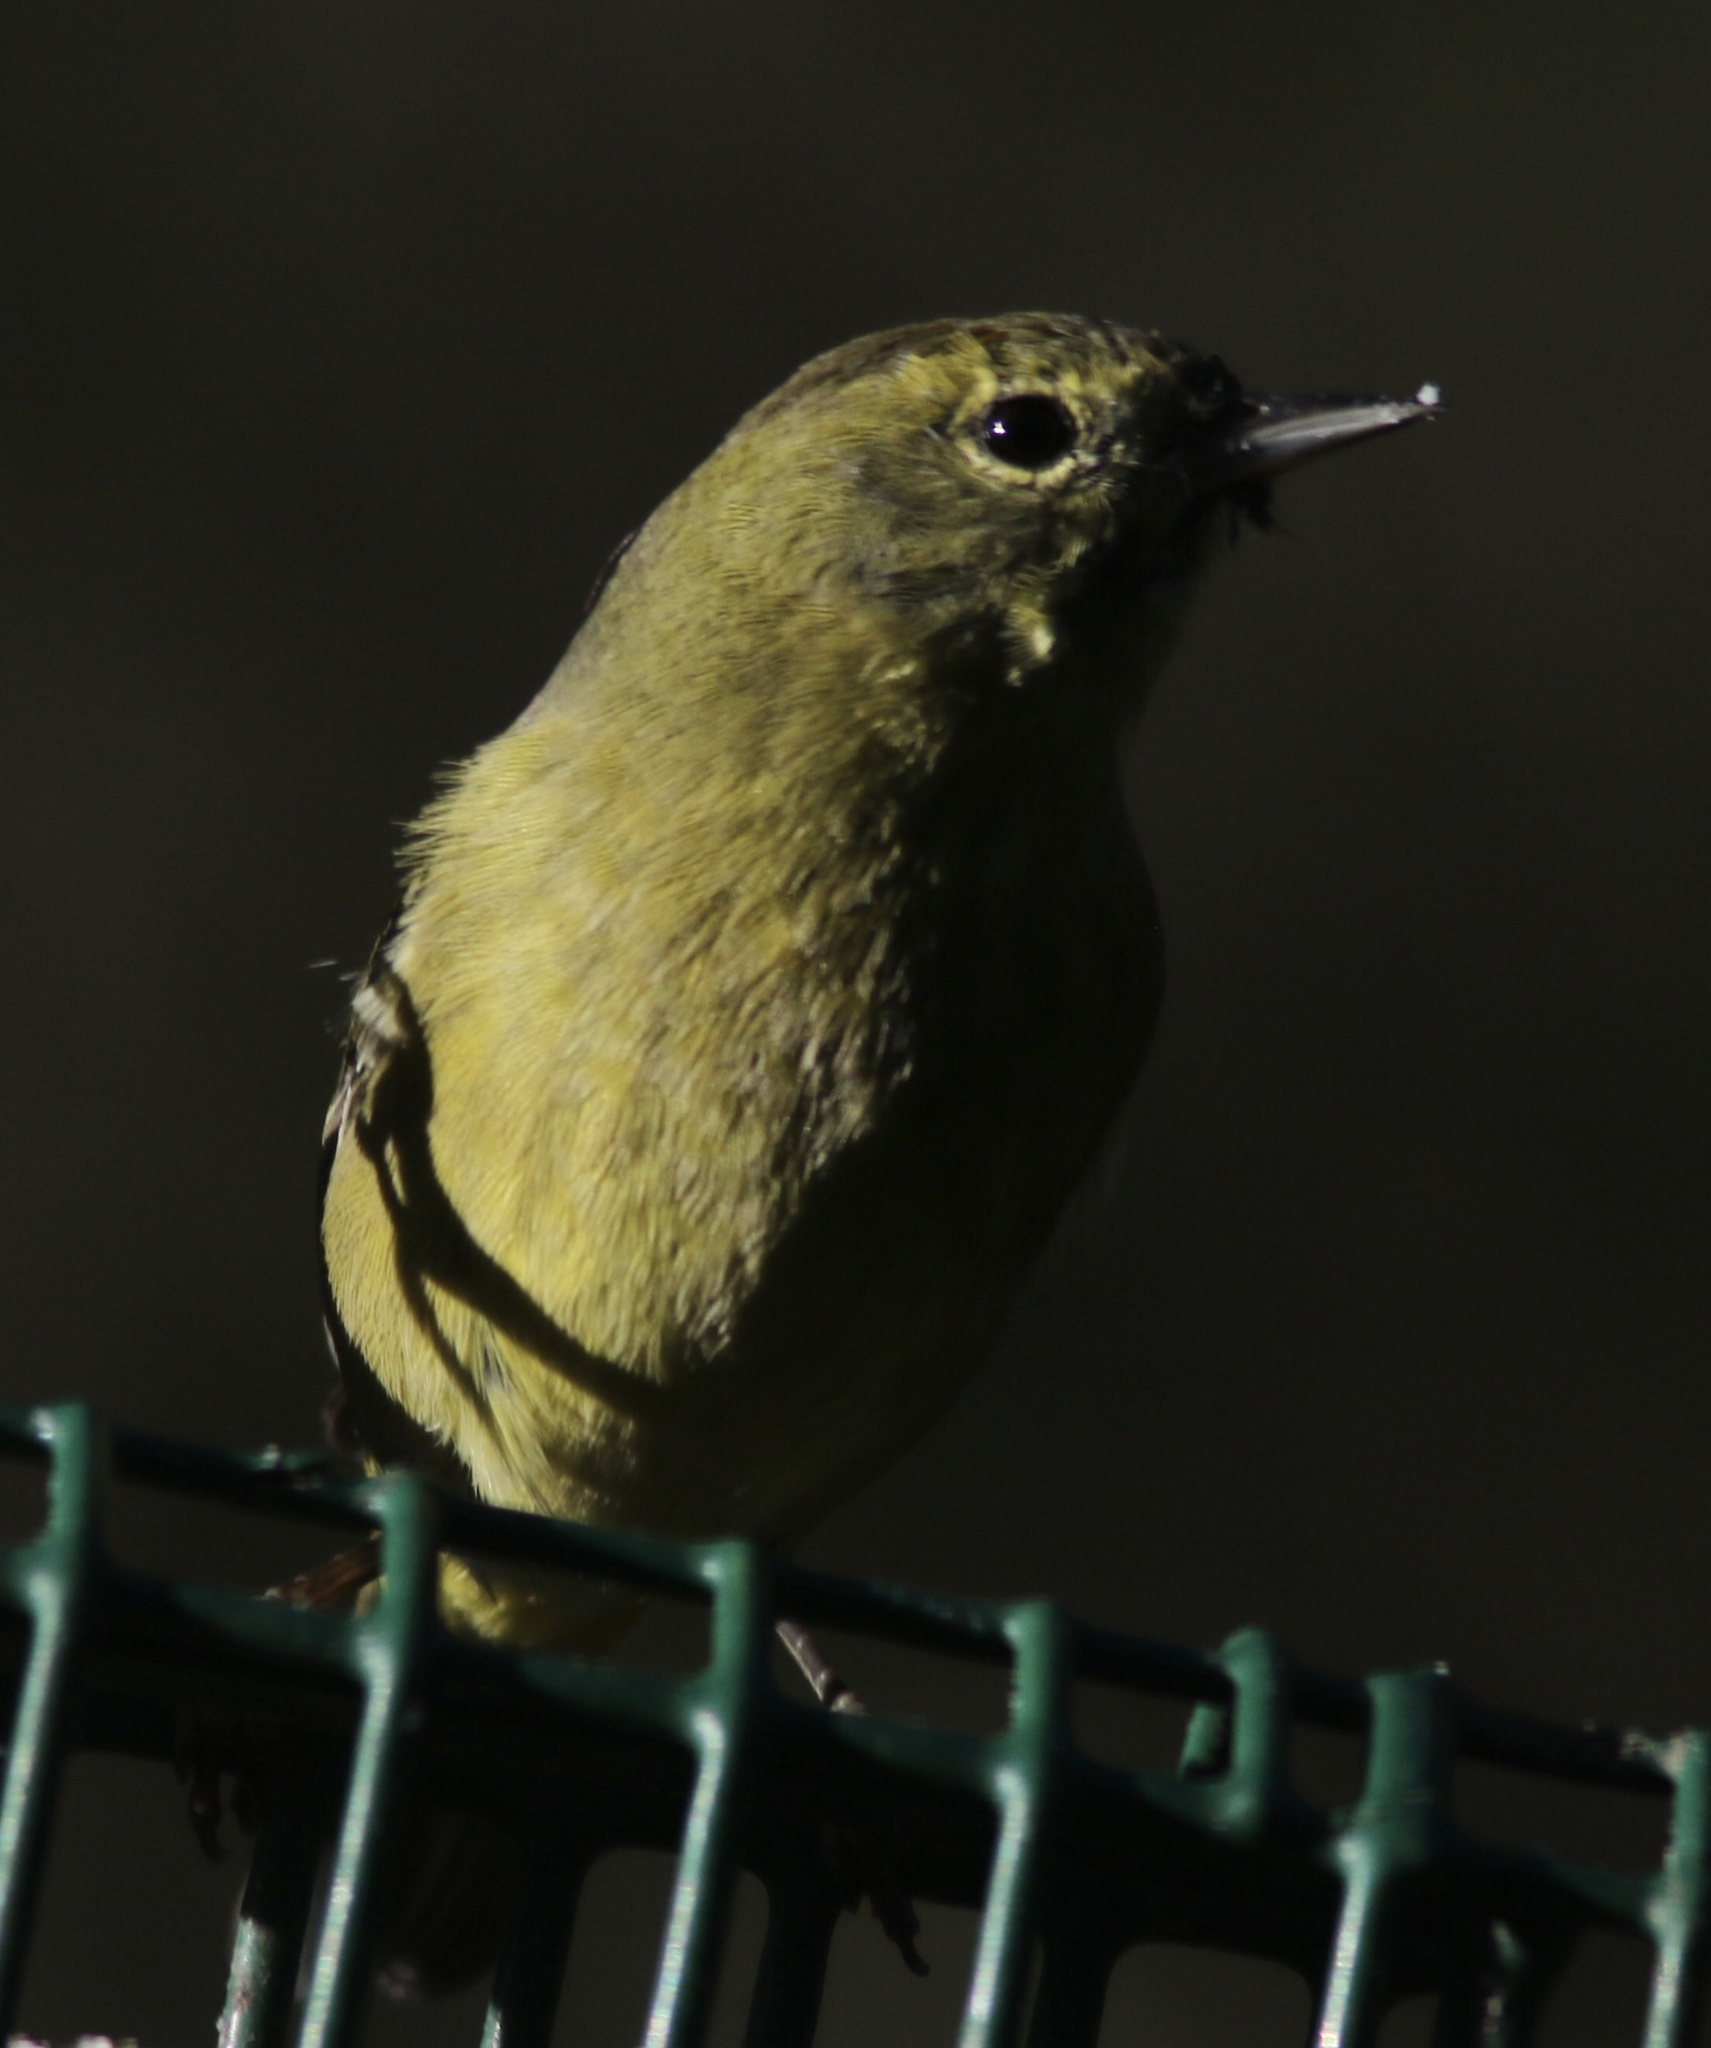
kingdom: Animalia
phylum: Chordata
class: Aves
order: Passeriformes
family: Parulidae
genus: Leiothlypis
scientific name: Leiothlypis celata
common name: Orange-crowned warbler
